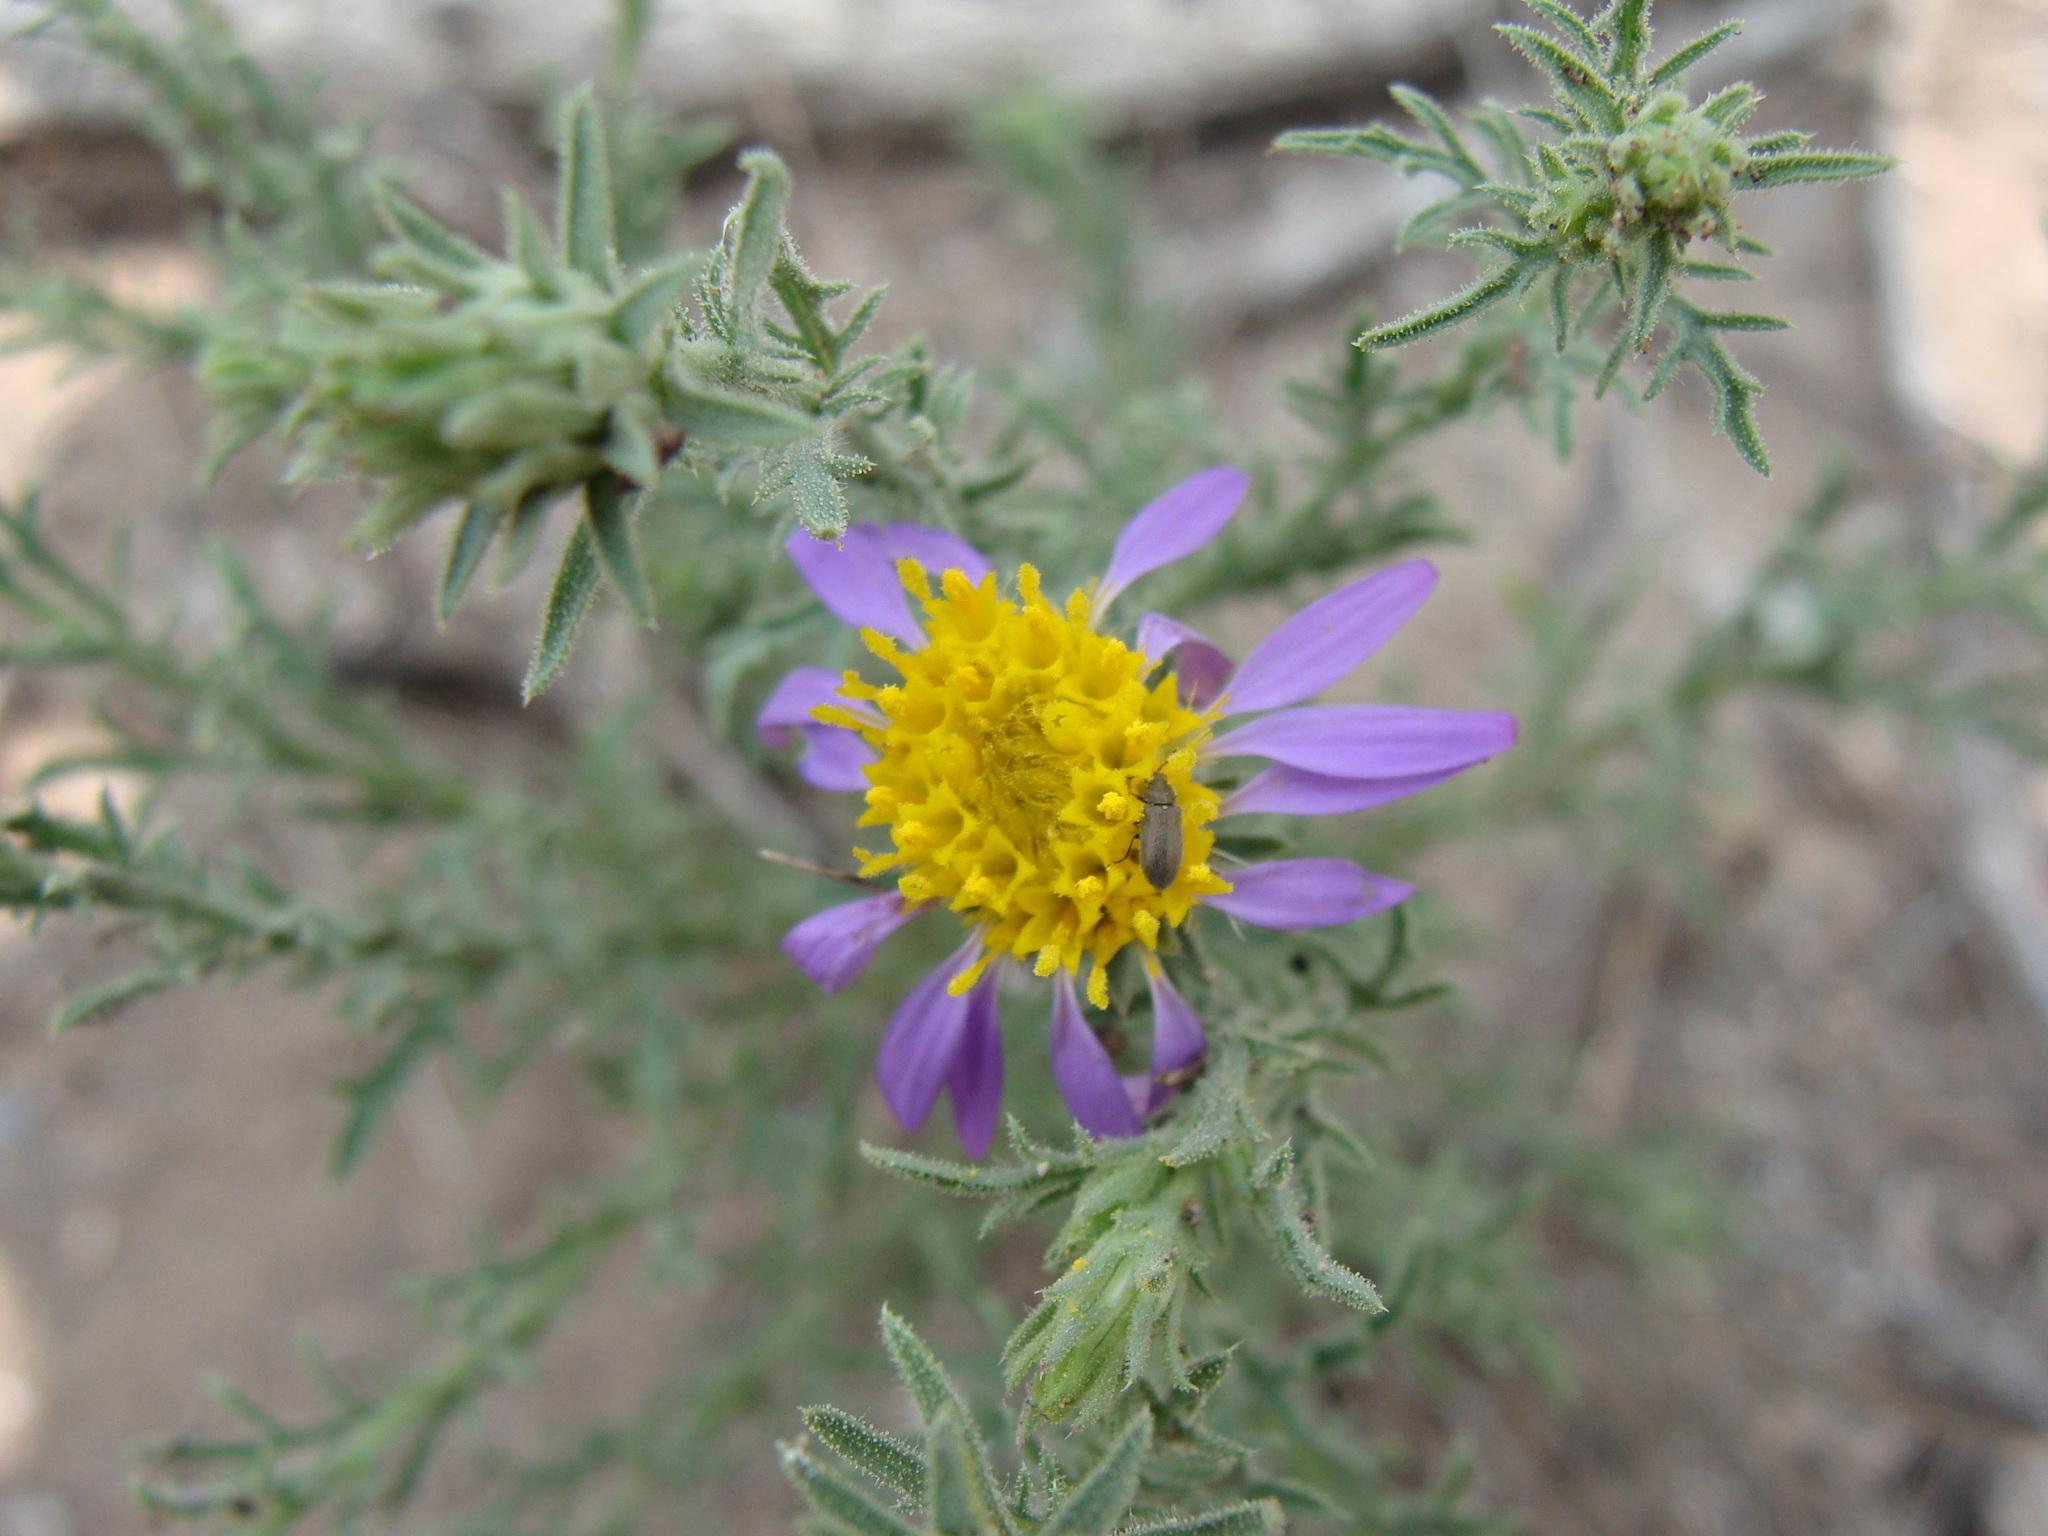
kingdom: Plantae
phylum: Tracheophyta
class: Magnoliopsida
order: Asterales
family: Asteraceae
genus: Machaeranthera
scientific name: Machaeranthera tagetina
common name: Mesa tansy-aster
